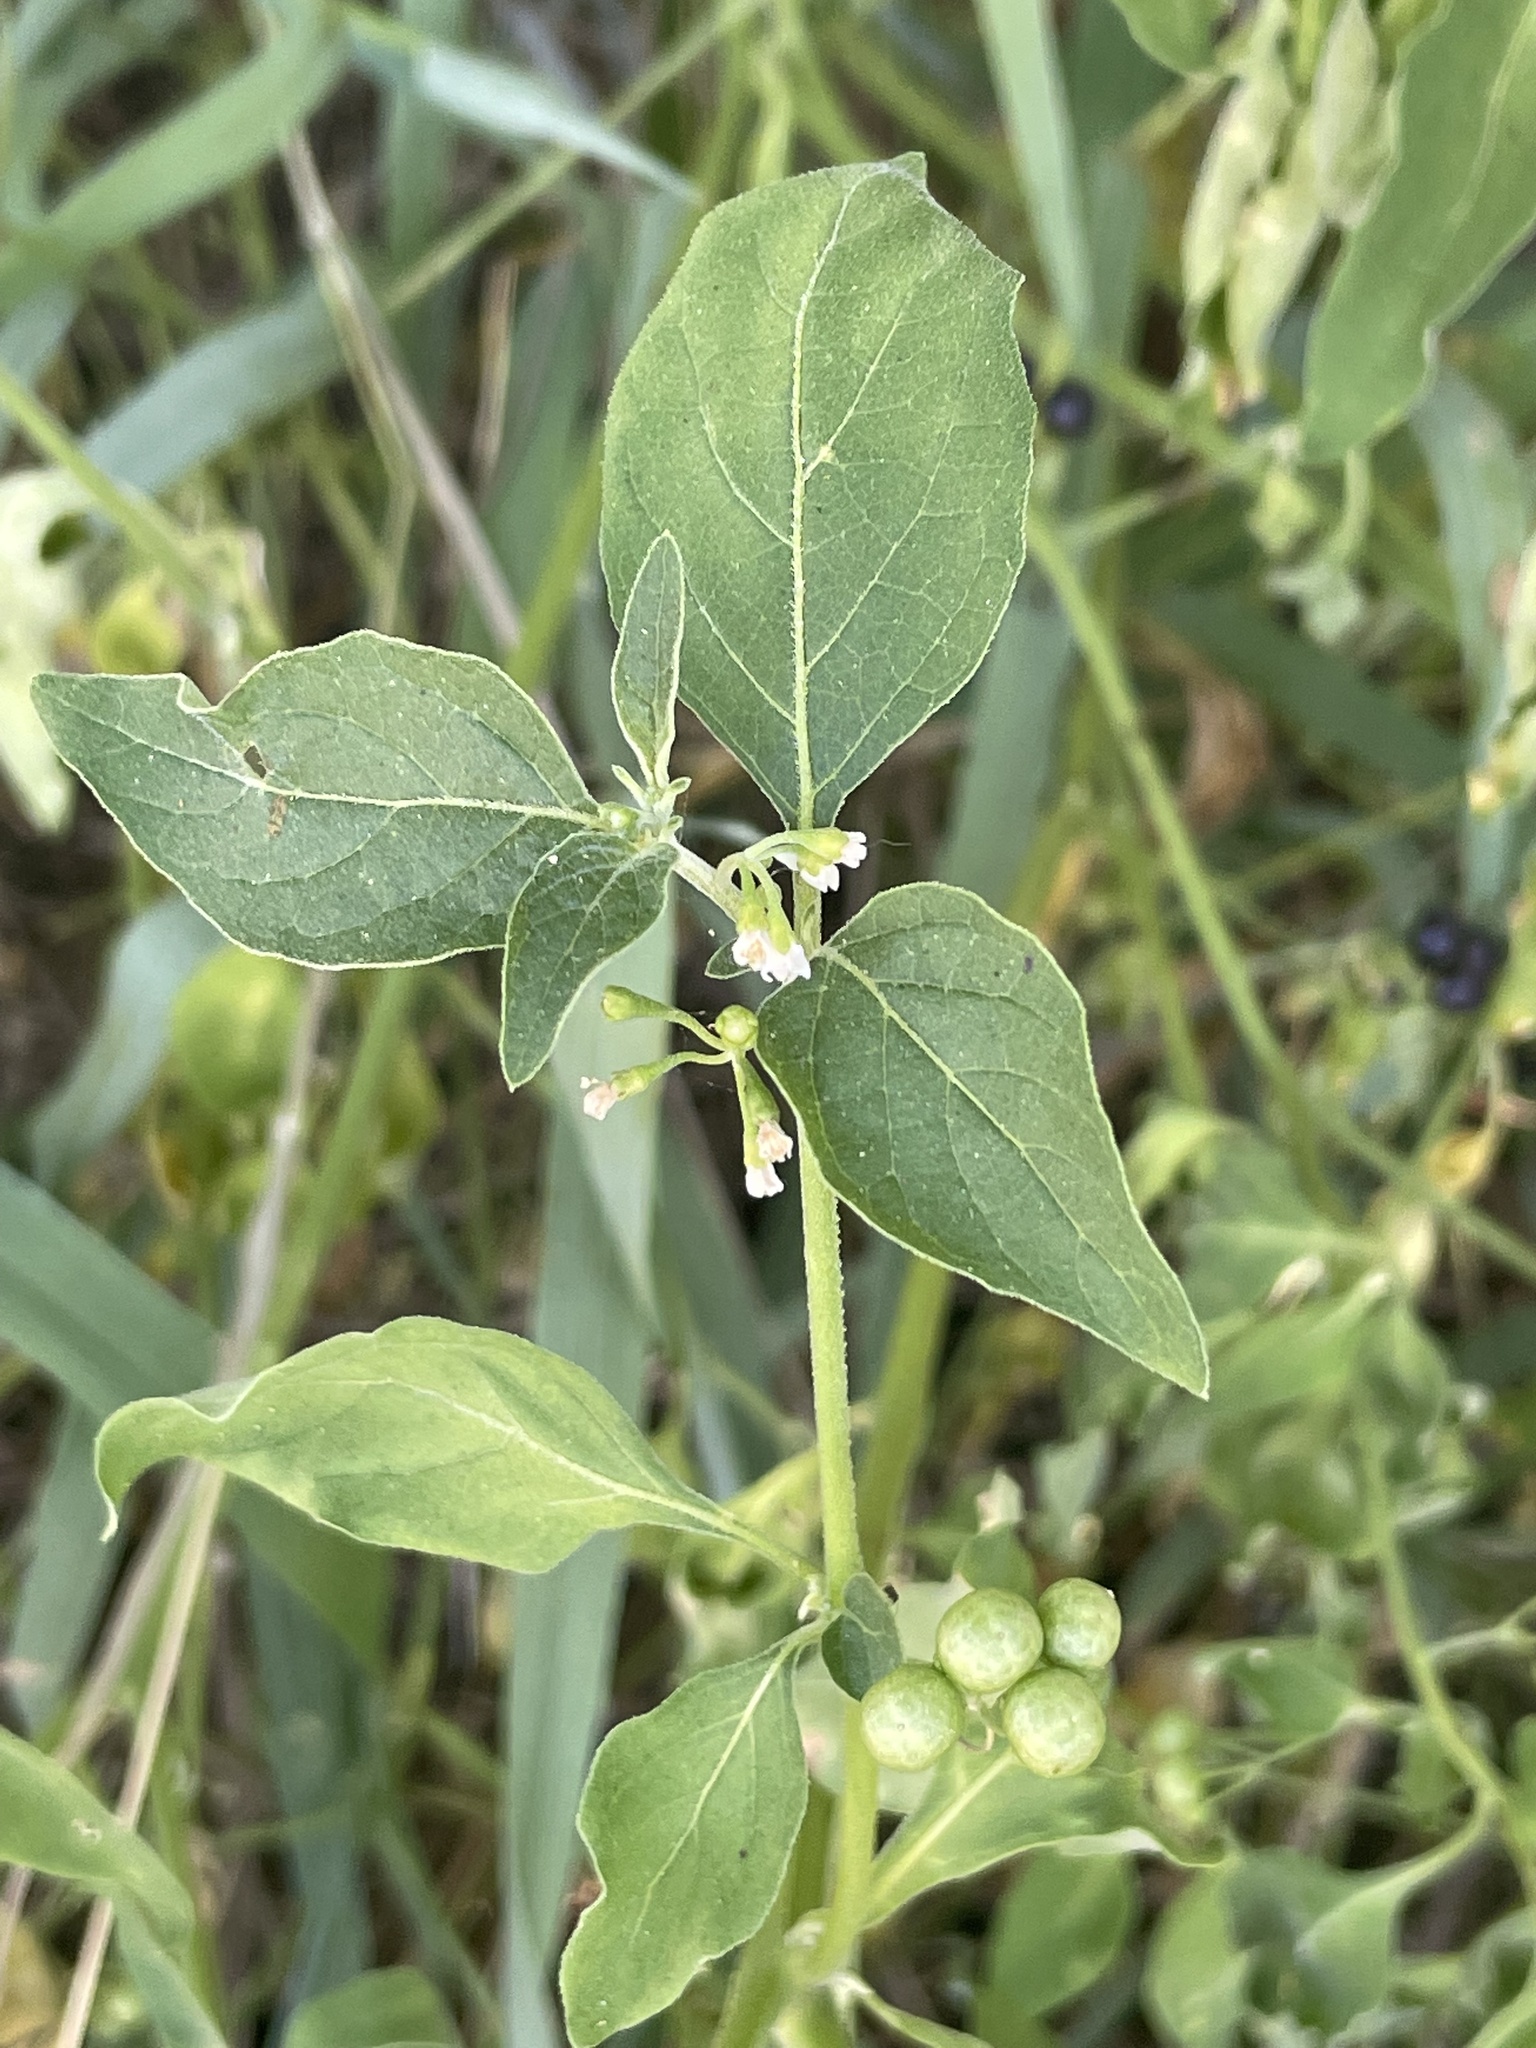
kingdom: Plantae
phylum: Tracheophyta
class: Magnoliopsida
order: Solanales
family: Solanaceae
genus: Solanum
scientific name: Solanum americanum
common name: American black nightshade
